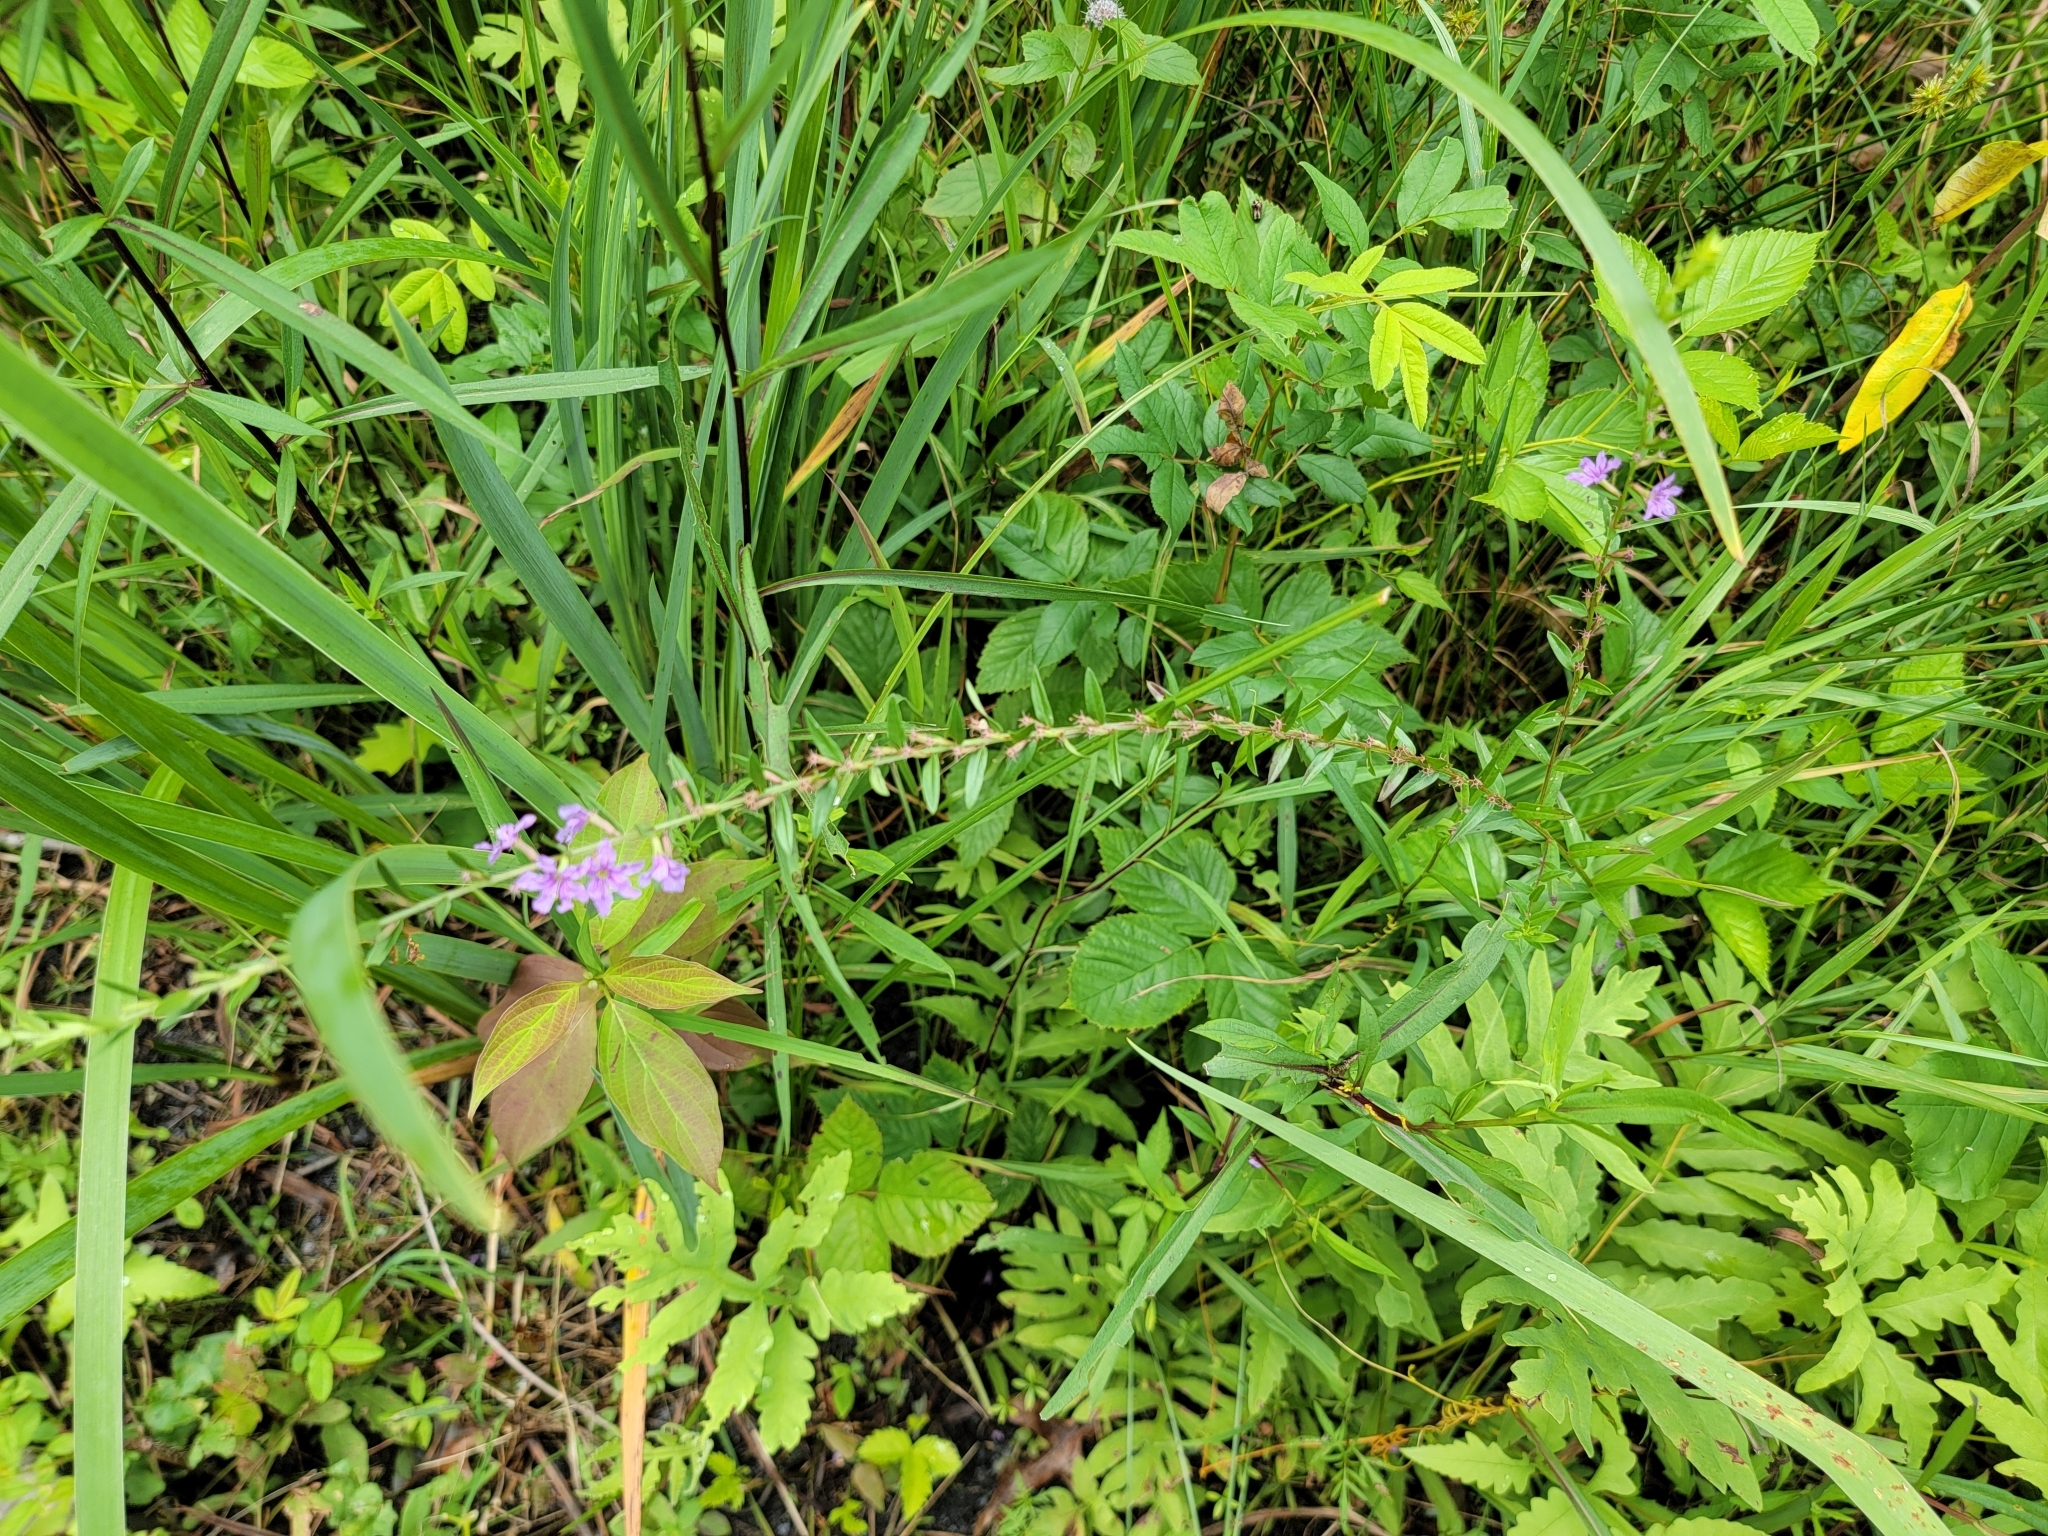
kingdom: Plantae
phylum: Tracheophyta
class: Magnoliopsida
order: Myrtales
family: Lythraceae
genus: Lythrum
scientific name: Lythrum alatum
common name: Winged loosestrife
